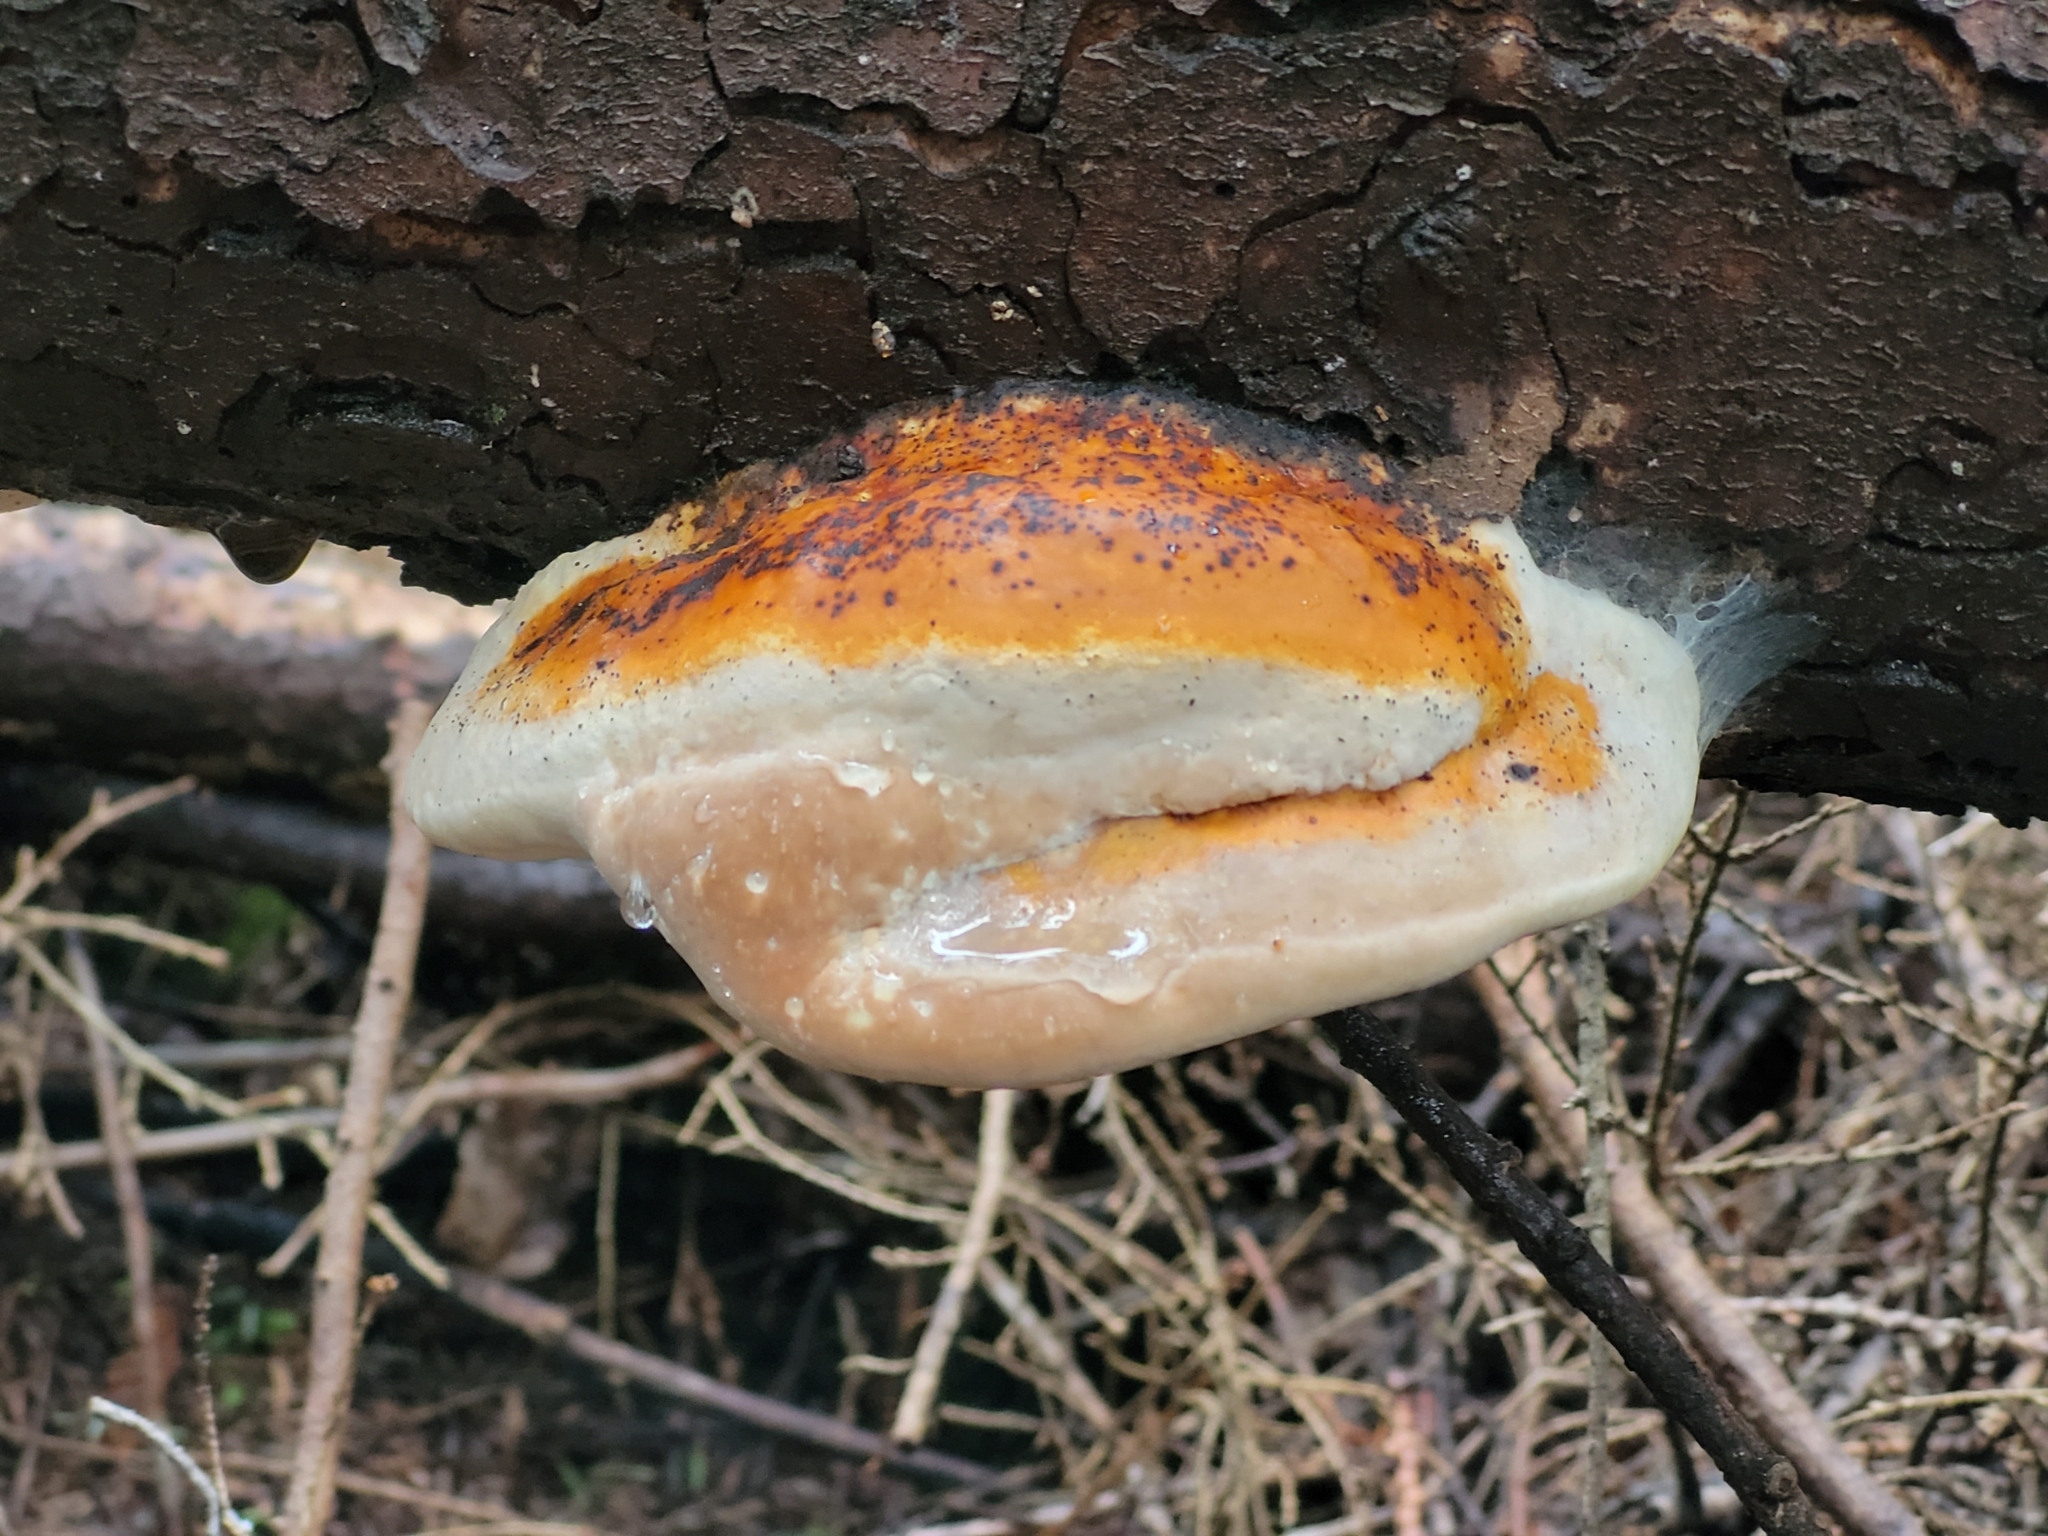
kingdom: Fungi
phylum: Basidiomycota
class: Agaricomycetes
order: Polyporales
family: Fomitopsidaceae
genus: Fomitopsis
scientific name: Fomitopsis mounceae
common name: Northern red belt
